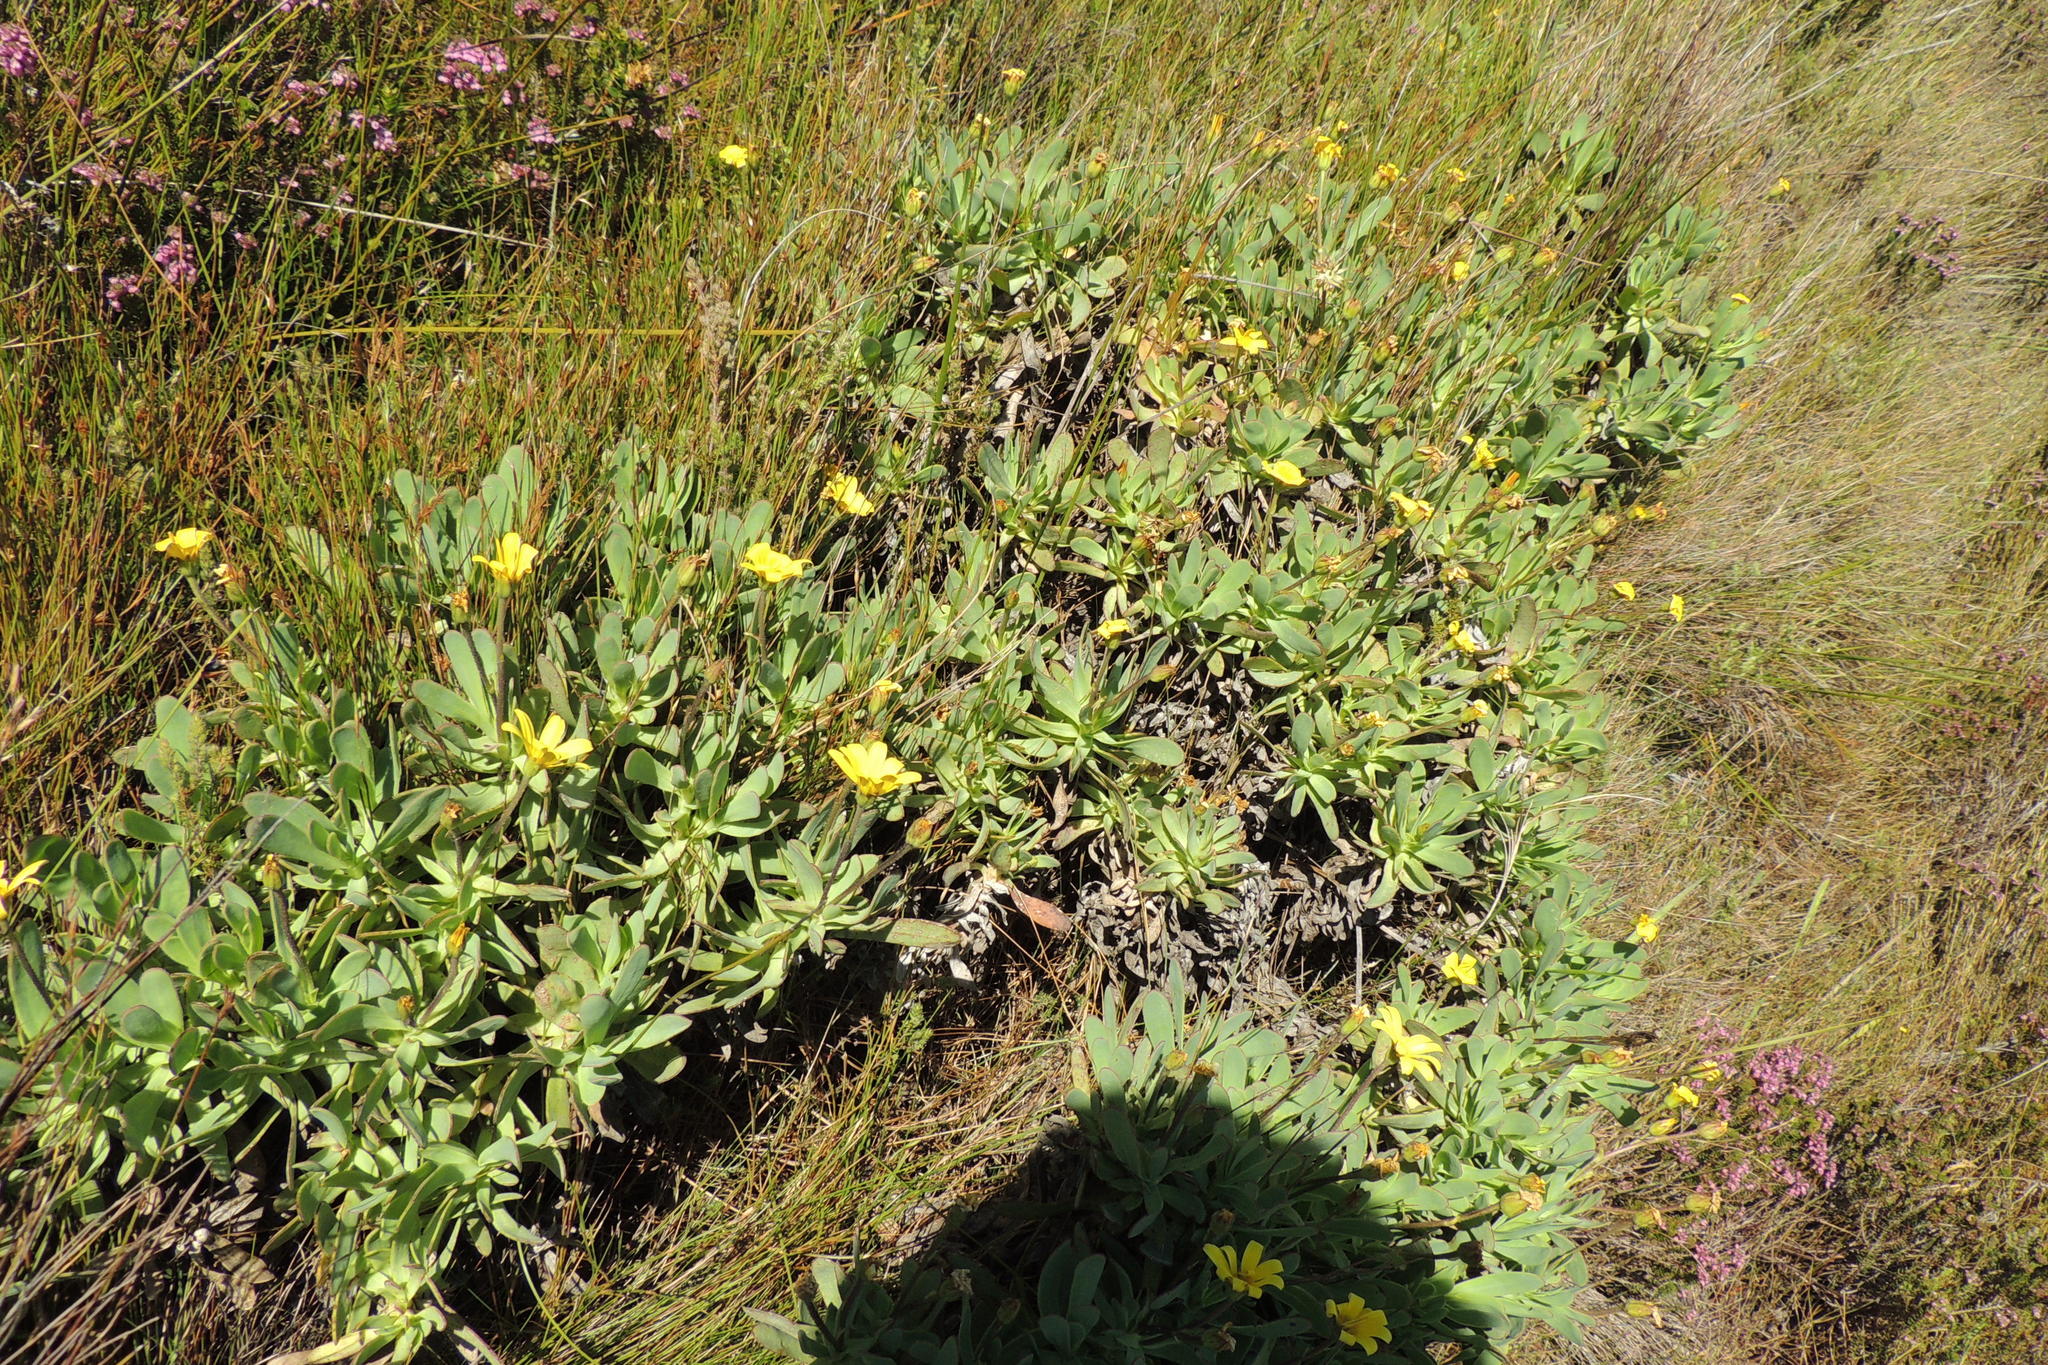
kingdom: Plantae
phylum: Tracheophyta
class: Magnoliopsida
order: Asterales
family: Asteraceae
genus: Osteospermum
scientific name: Osteospermum burttianum
